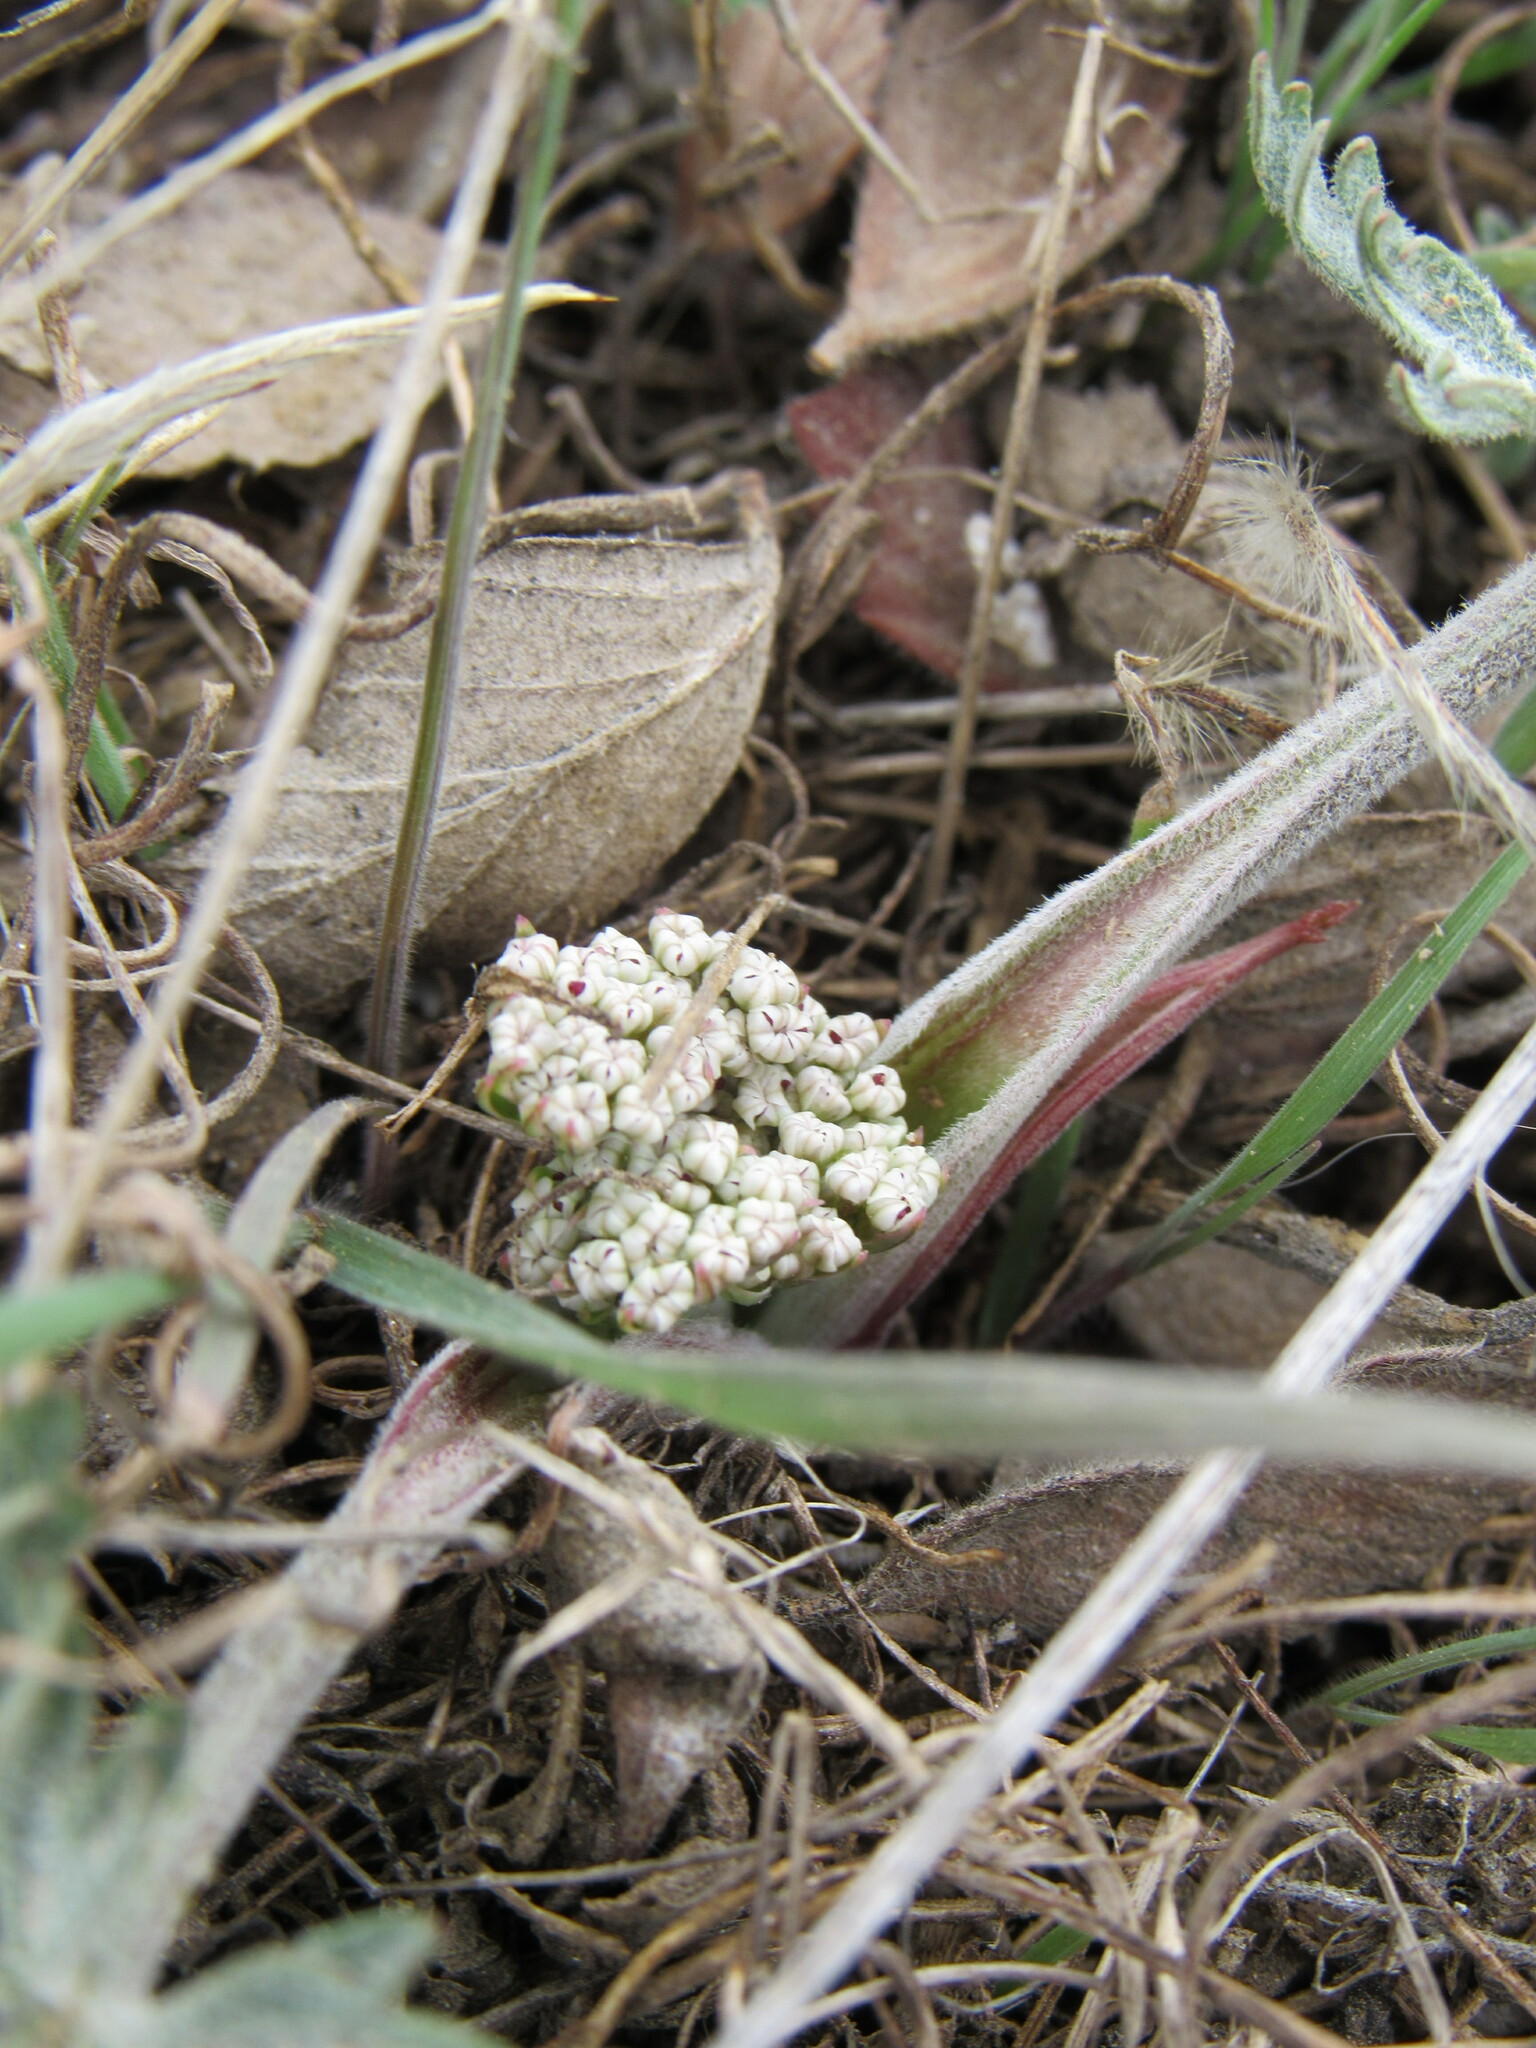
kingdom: Plantae
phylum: Tracheophyta
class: Magnoliopsida
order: Apiales
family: Apiaceae
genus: Lomatium
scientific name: Lomatium orientale
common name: Eastern cous
